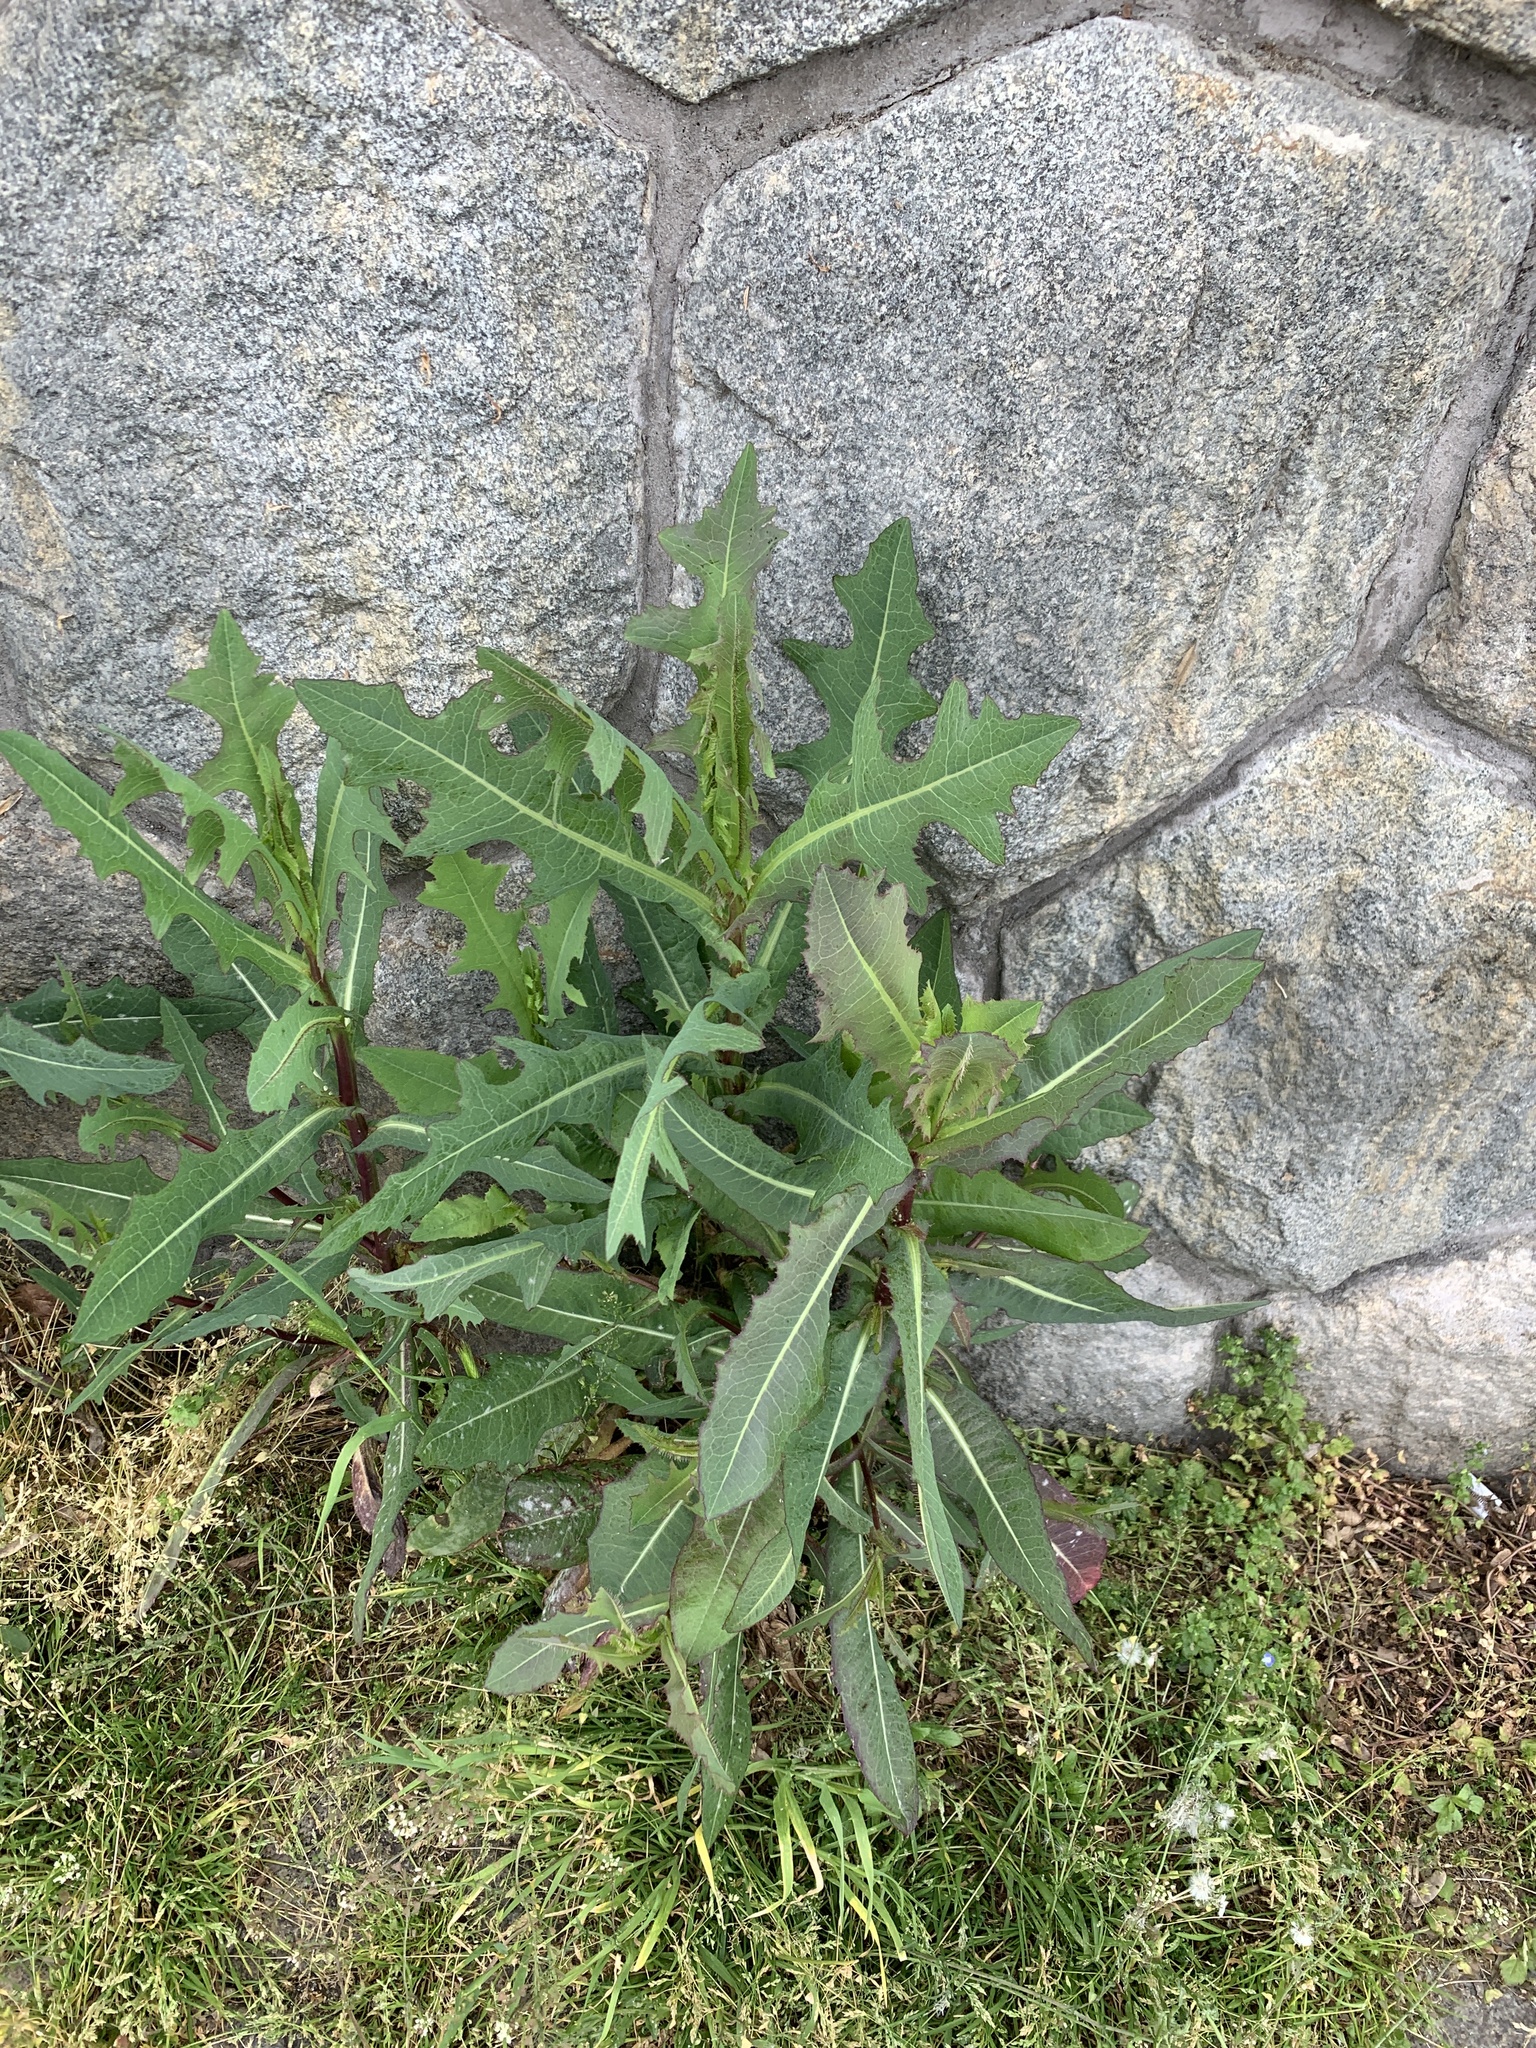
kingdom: Plantae
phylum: Tracheophyta
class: Magnoliopsida
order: Asterales
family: Asteraceae
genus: Lactuca
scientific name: Lactuca serriola
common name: Prickly lettuce
